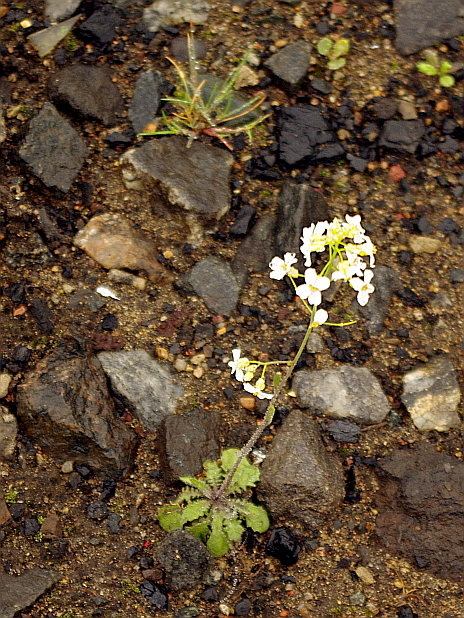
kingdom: Plantae
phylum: Tracheophyta
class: Magnoliopsida
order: Brassicales
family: Brassicaceae
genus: Arabidopsis
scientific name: Arabidopsis arenosa
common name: Sand rock-cress
